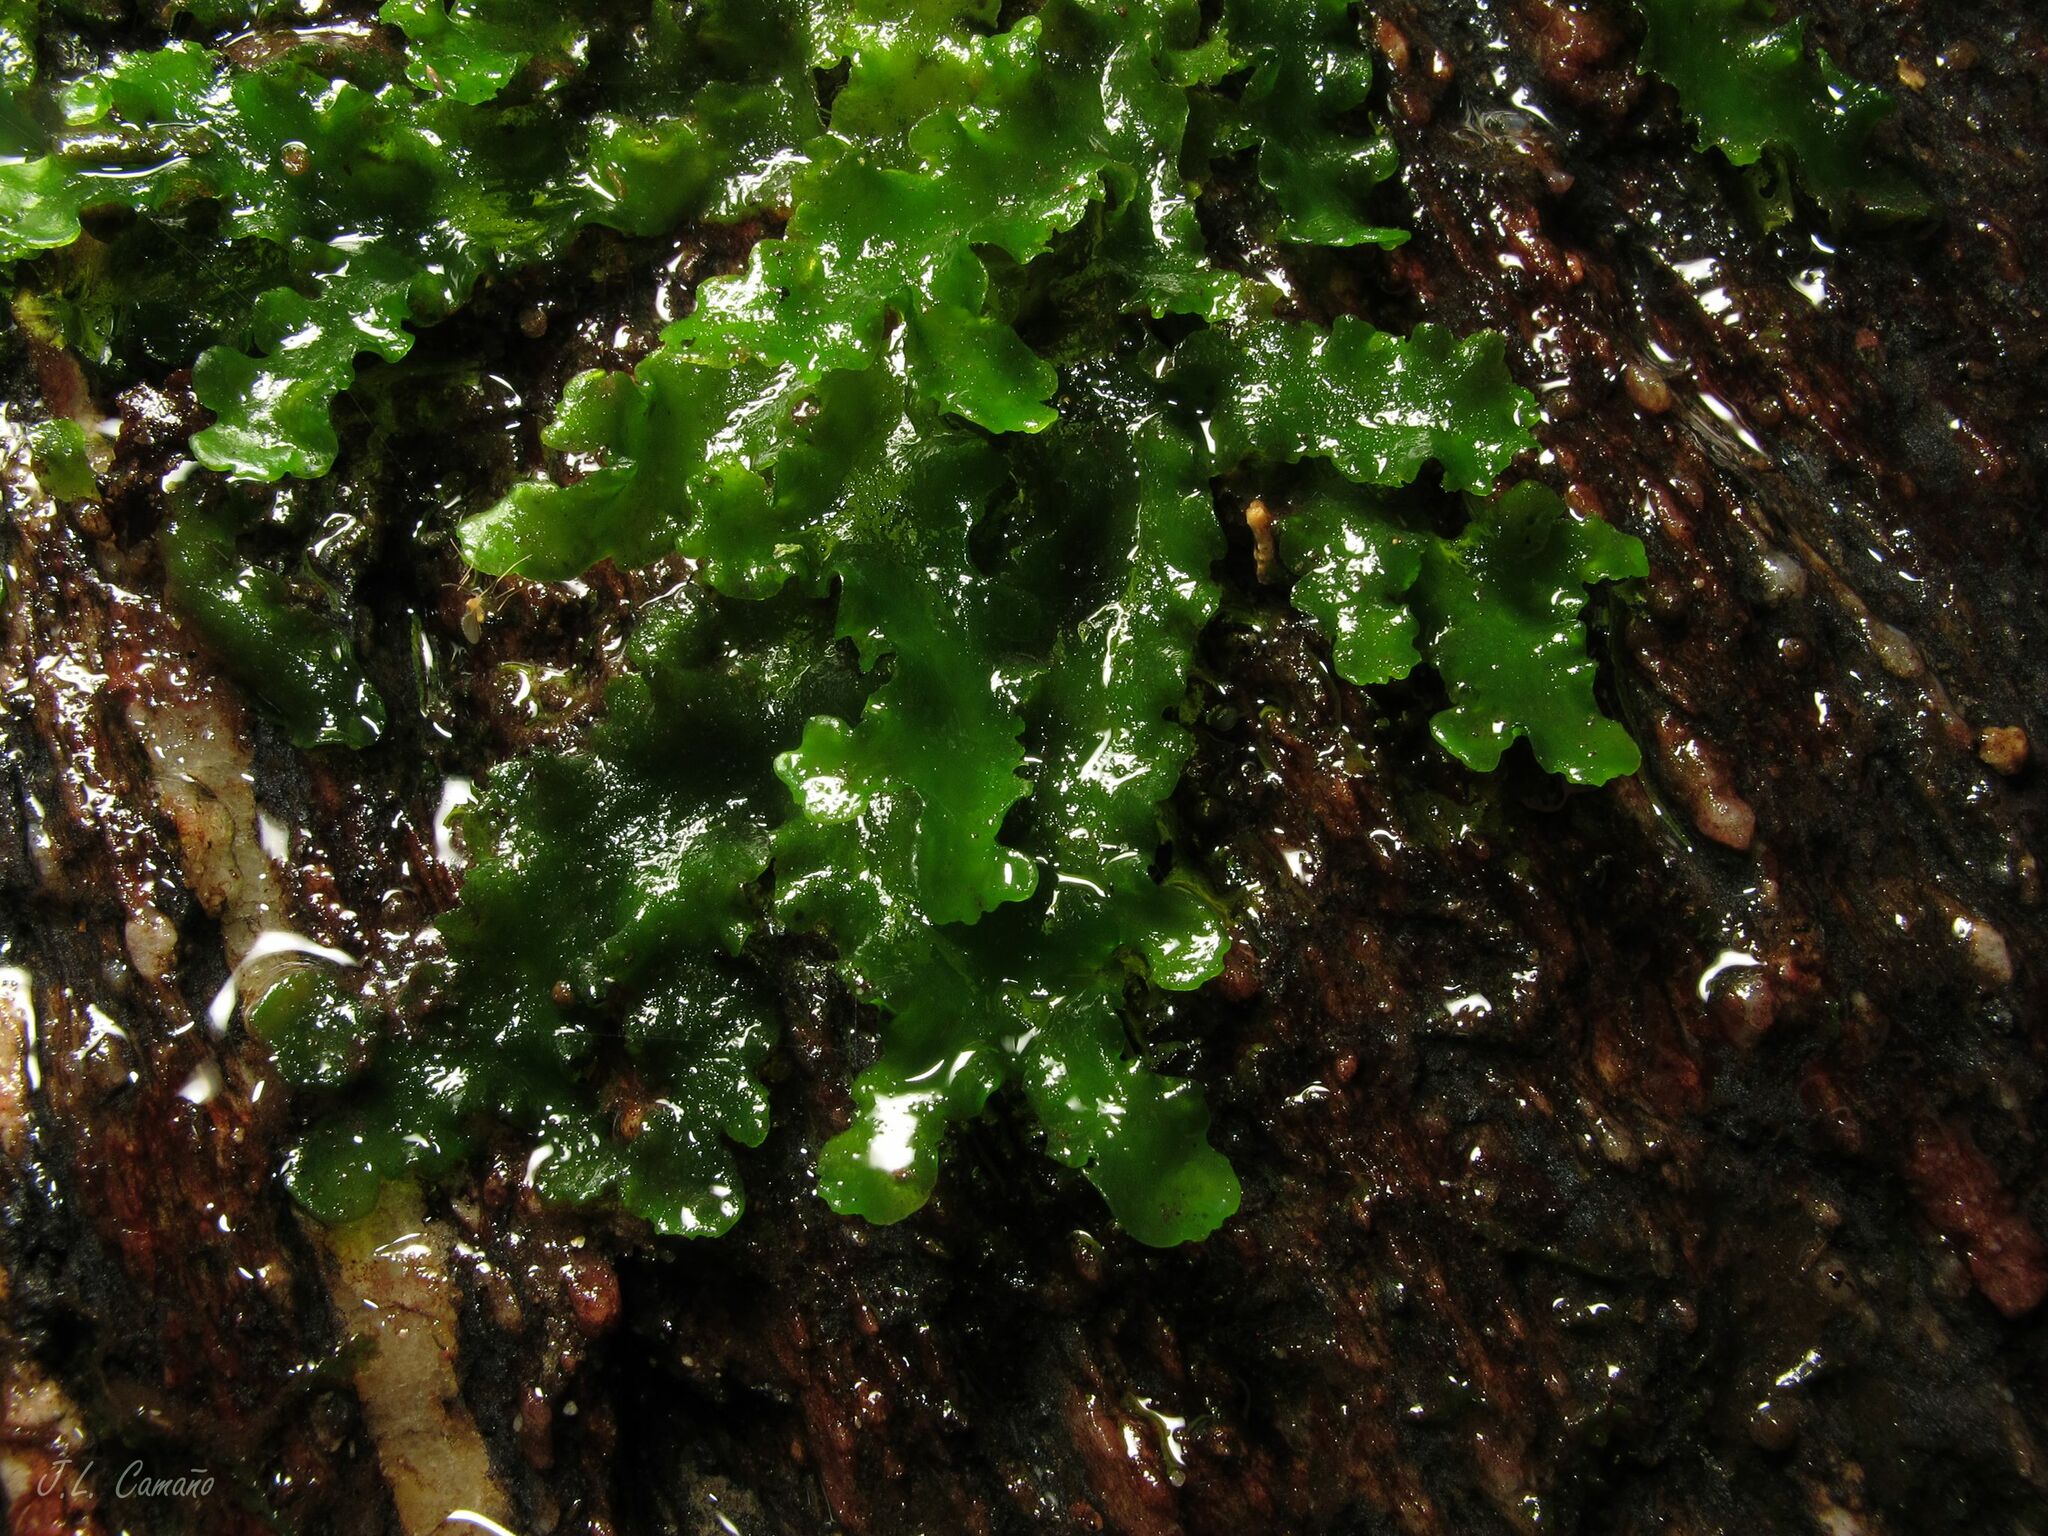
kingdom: Plantae
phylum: Marchantiophyta
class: Jungermanniopsida
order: Metzgeriales
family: Aneuraceae
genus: Aneura
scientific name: Aneura pinguis
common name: Common greasewort
